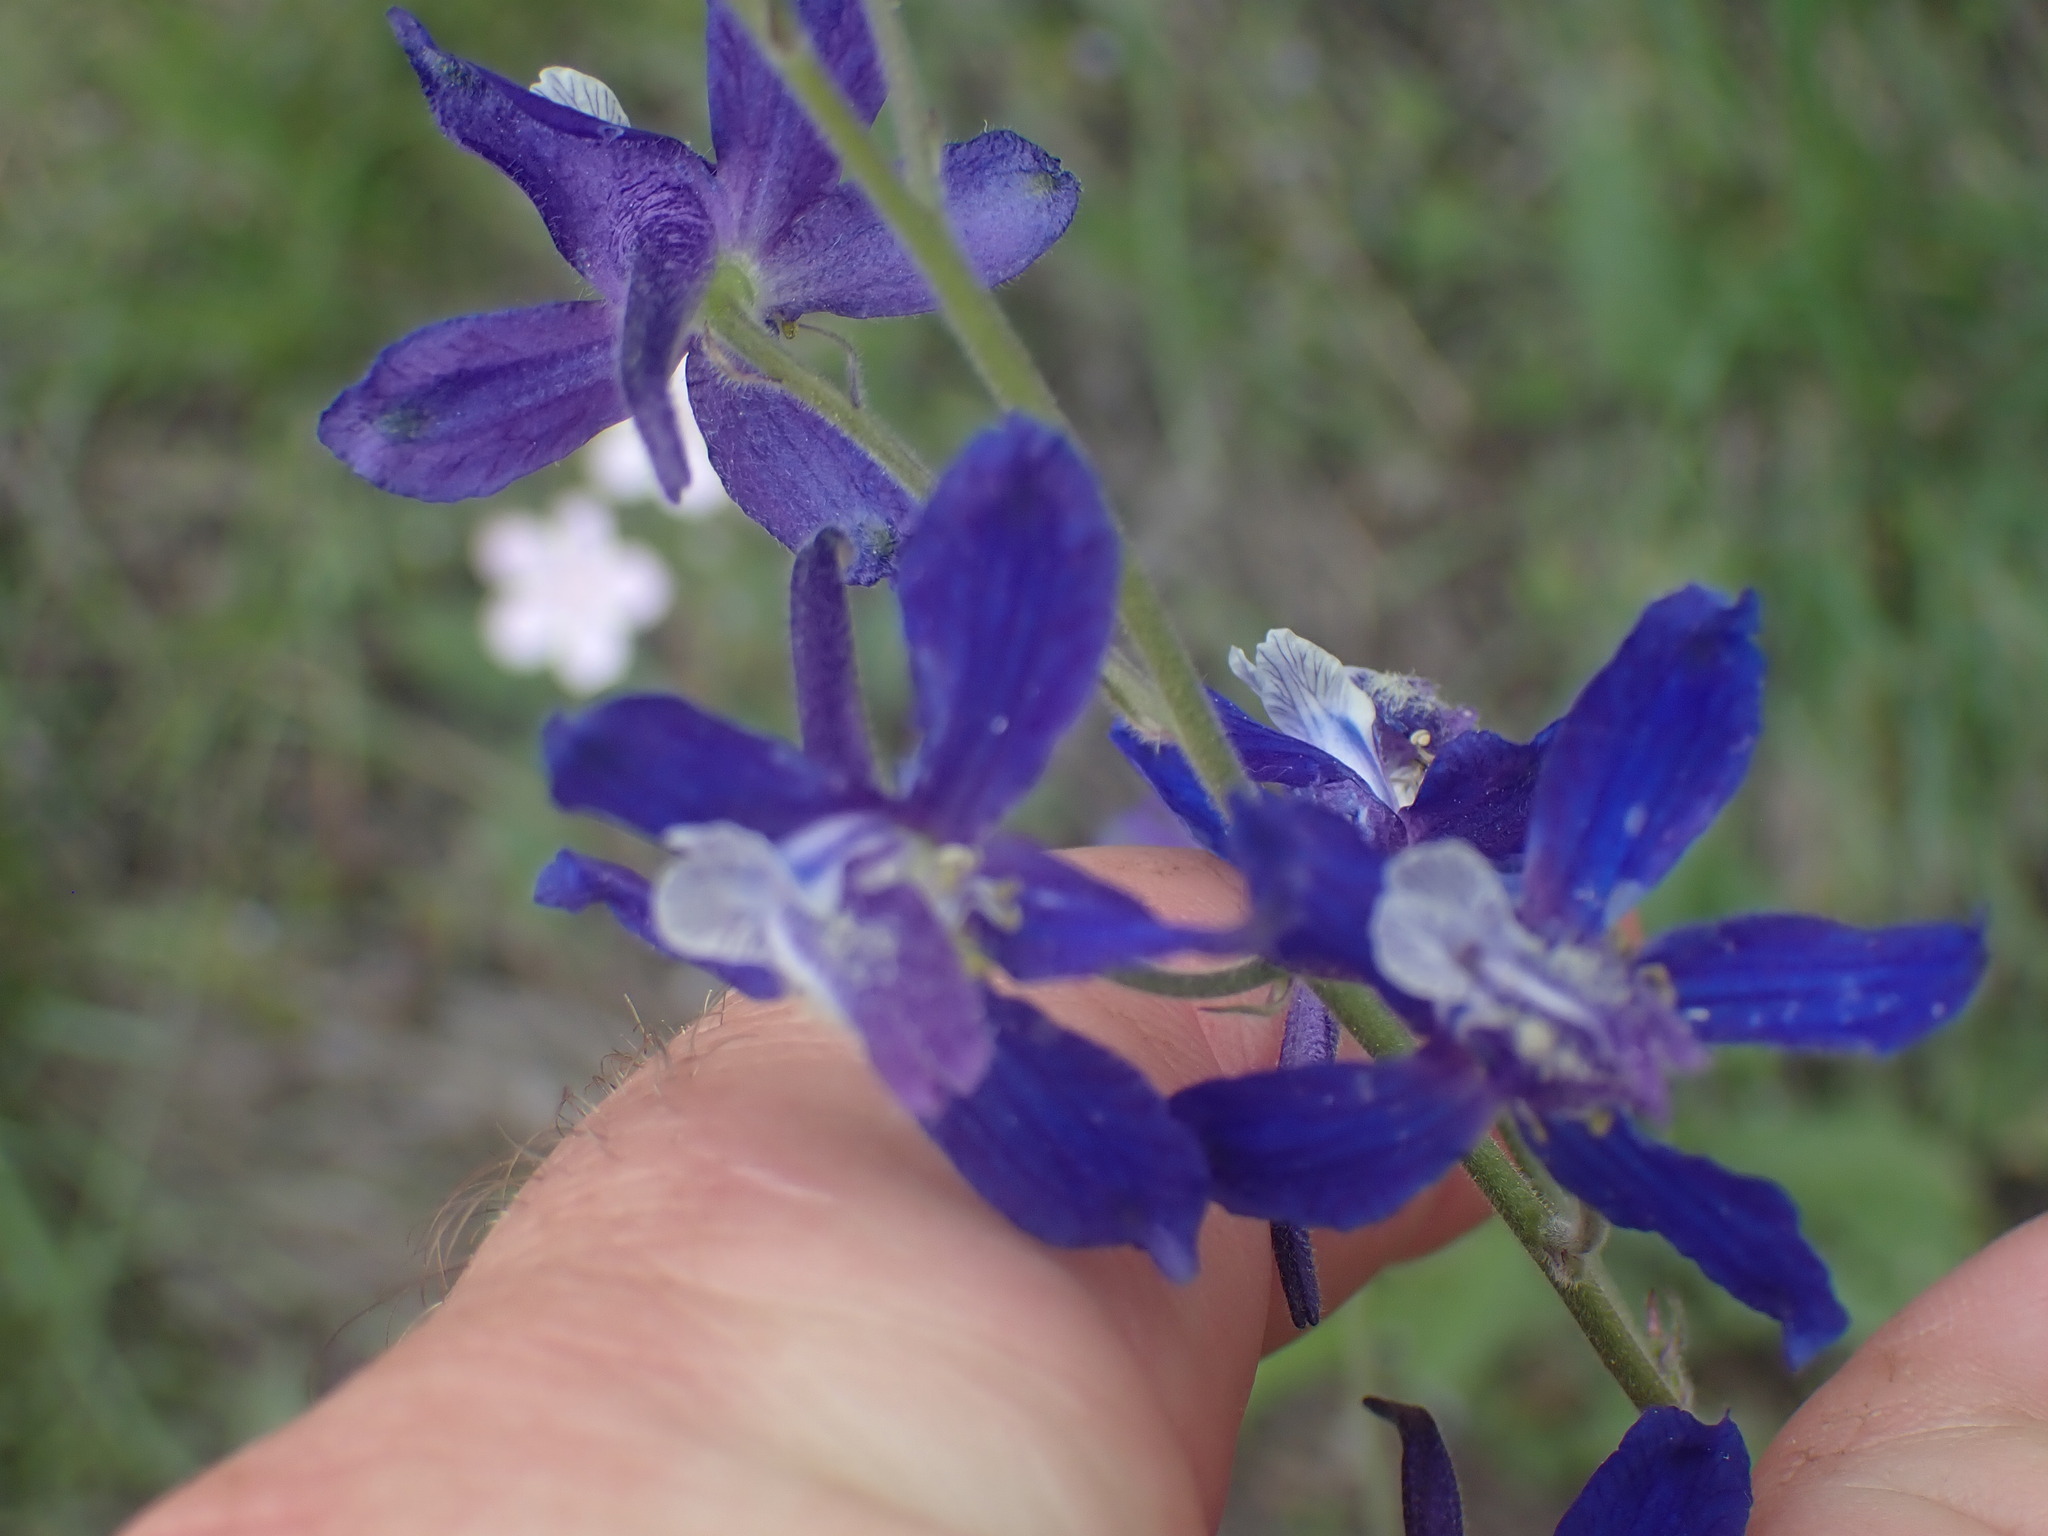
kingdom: Plantae
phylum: Tracheophyta
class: Magnoliopsida
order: Ranunculales
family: Ranunculaceae
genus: Delphinium
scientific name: Delphinium nuttallianum
